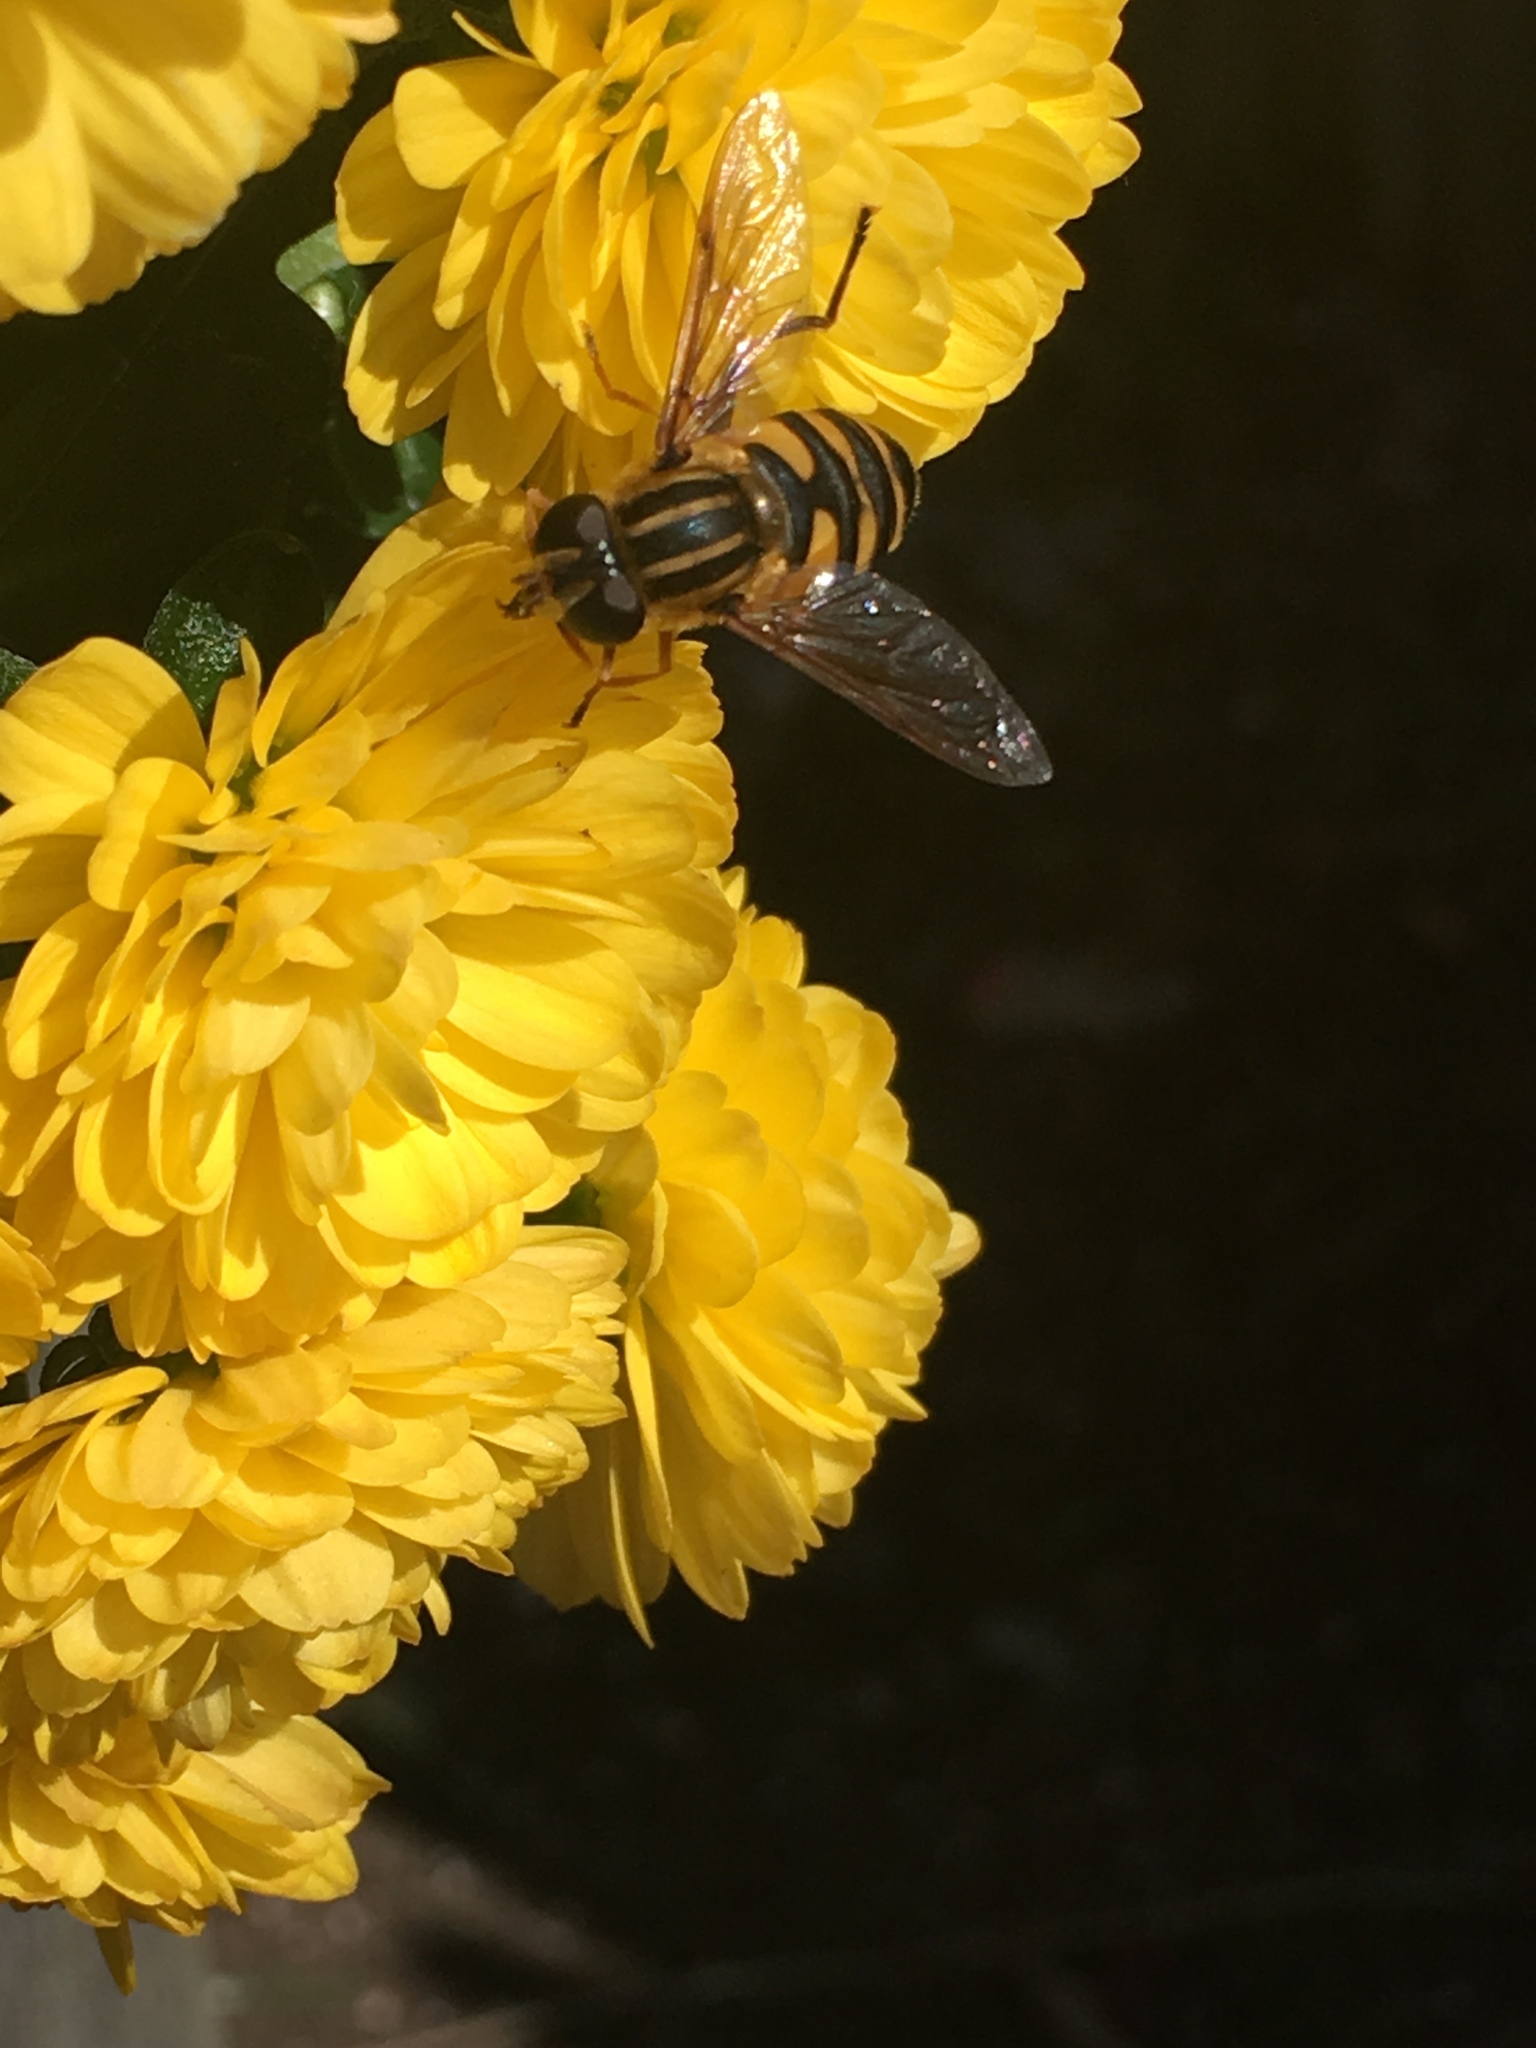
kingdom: Animalia
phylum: Arthropoda
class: Insecta
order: Diptera
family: Syrphidae
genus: Helophilus
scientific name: Helophilus fasciatus
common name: Narrow-headed marsh fly
